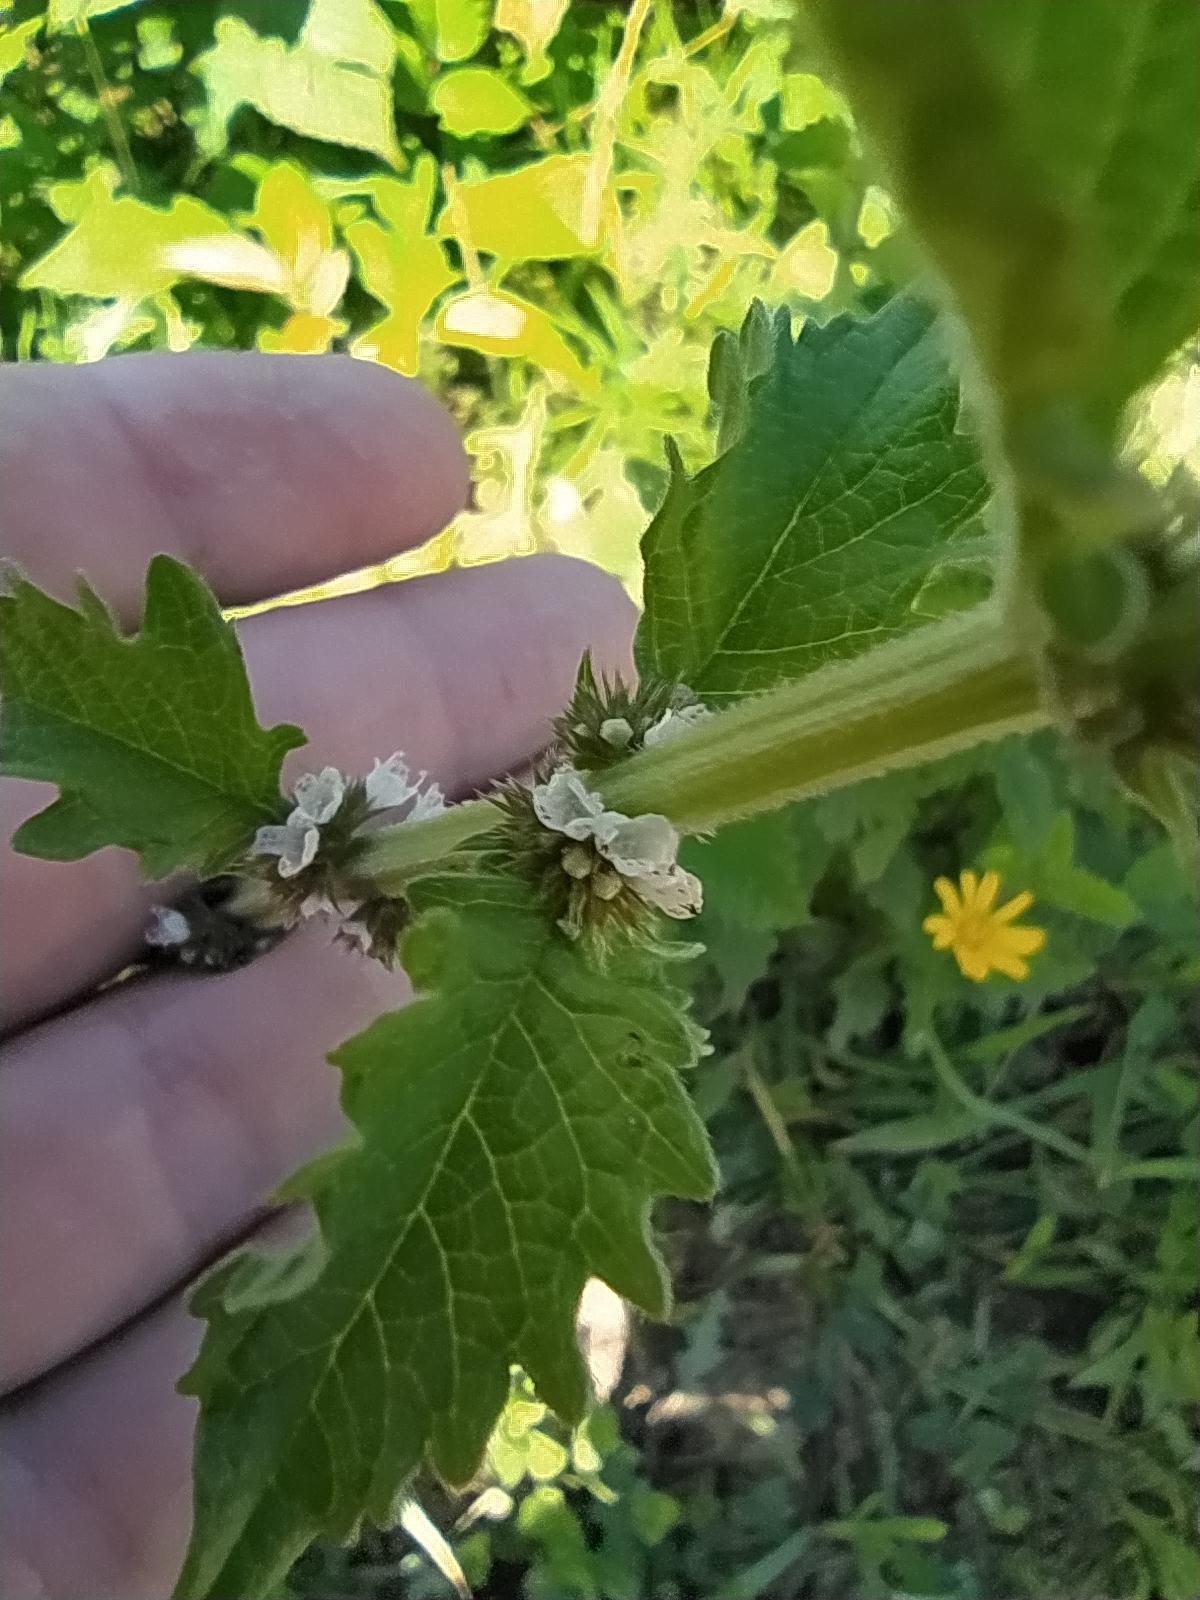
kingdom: Plantae
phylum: Tracheophyta
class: Magnoliopsida
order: Lamiales
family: Lamiaceae
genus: Lycopus
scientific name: Lycopus europaeus
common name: European bugleweed
